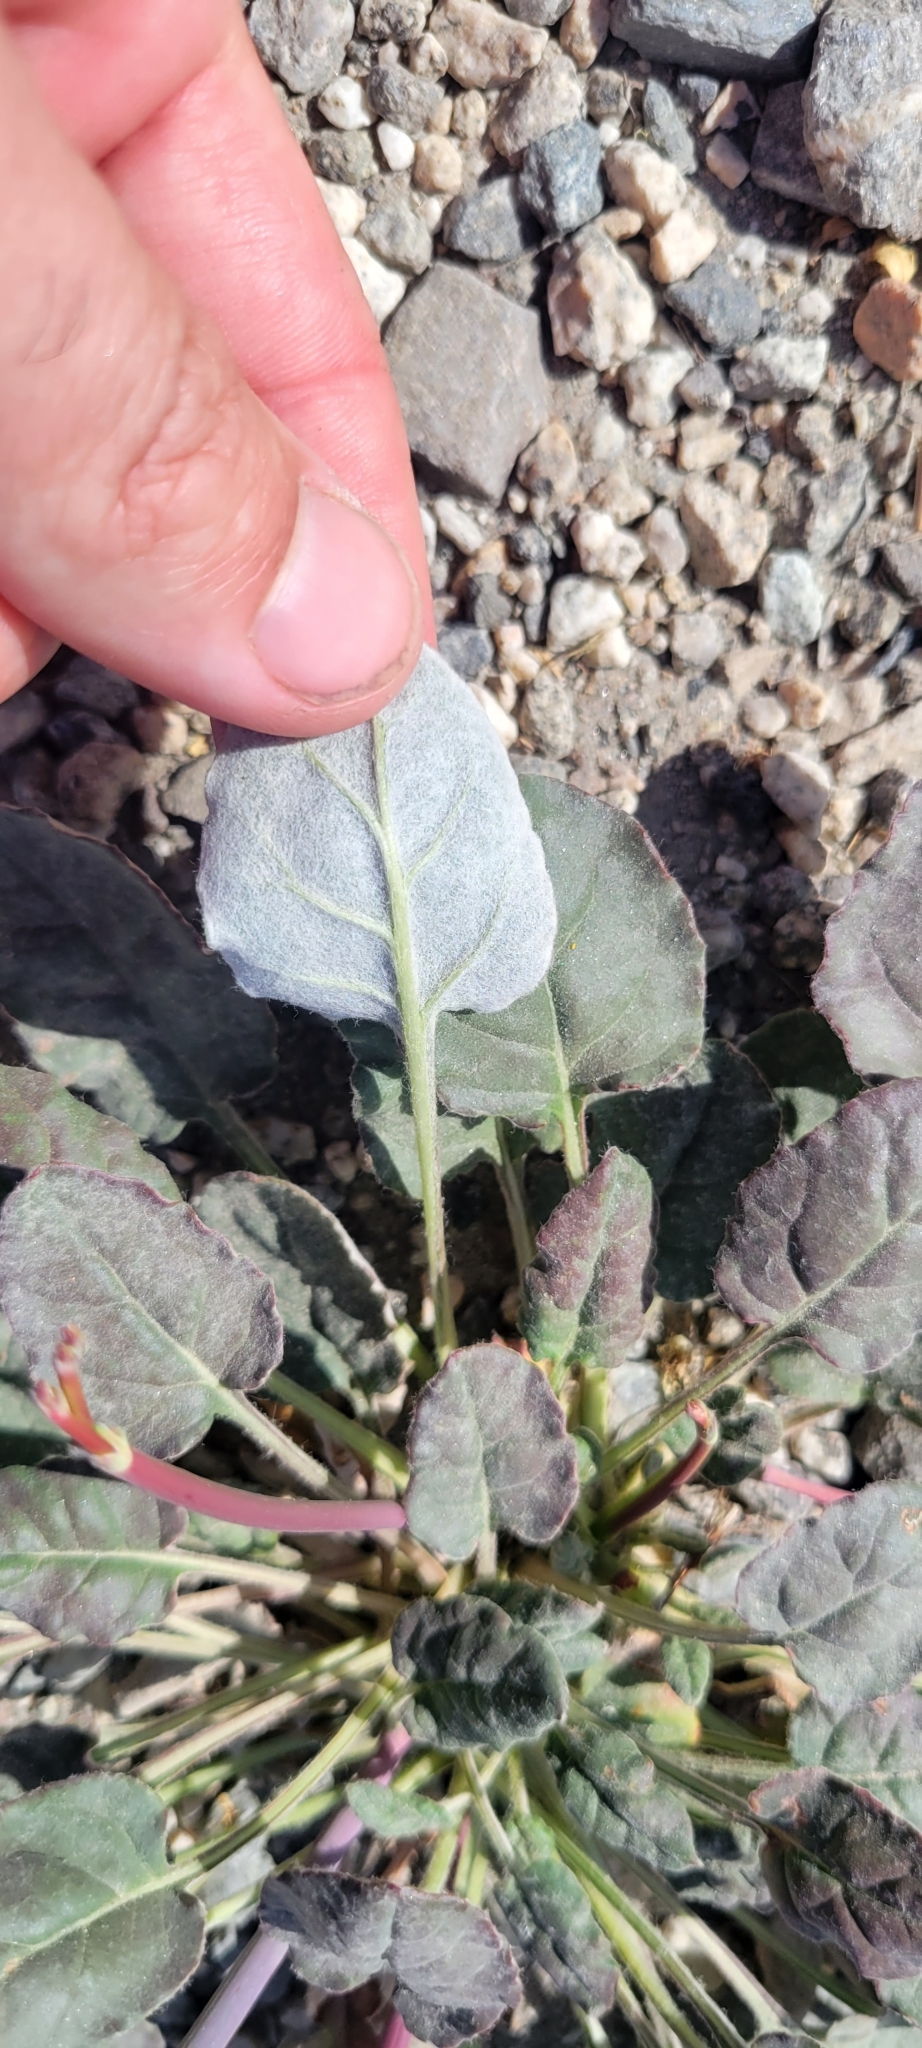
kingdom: Plantae
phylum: Tracheophyta
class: Magnoliopsida
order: Caryophyllales
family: Polygonaceae
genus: Eriogonum
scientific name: Eriogonum nudum
